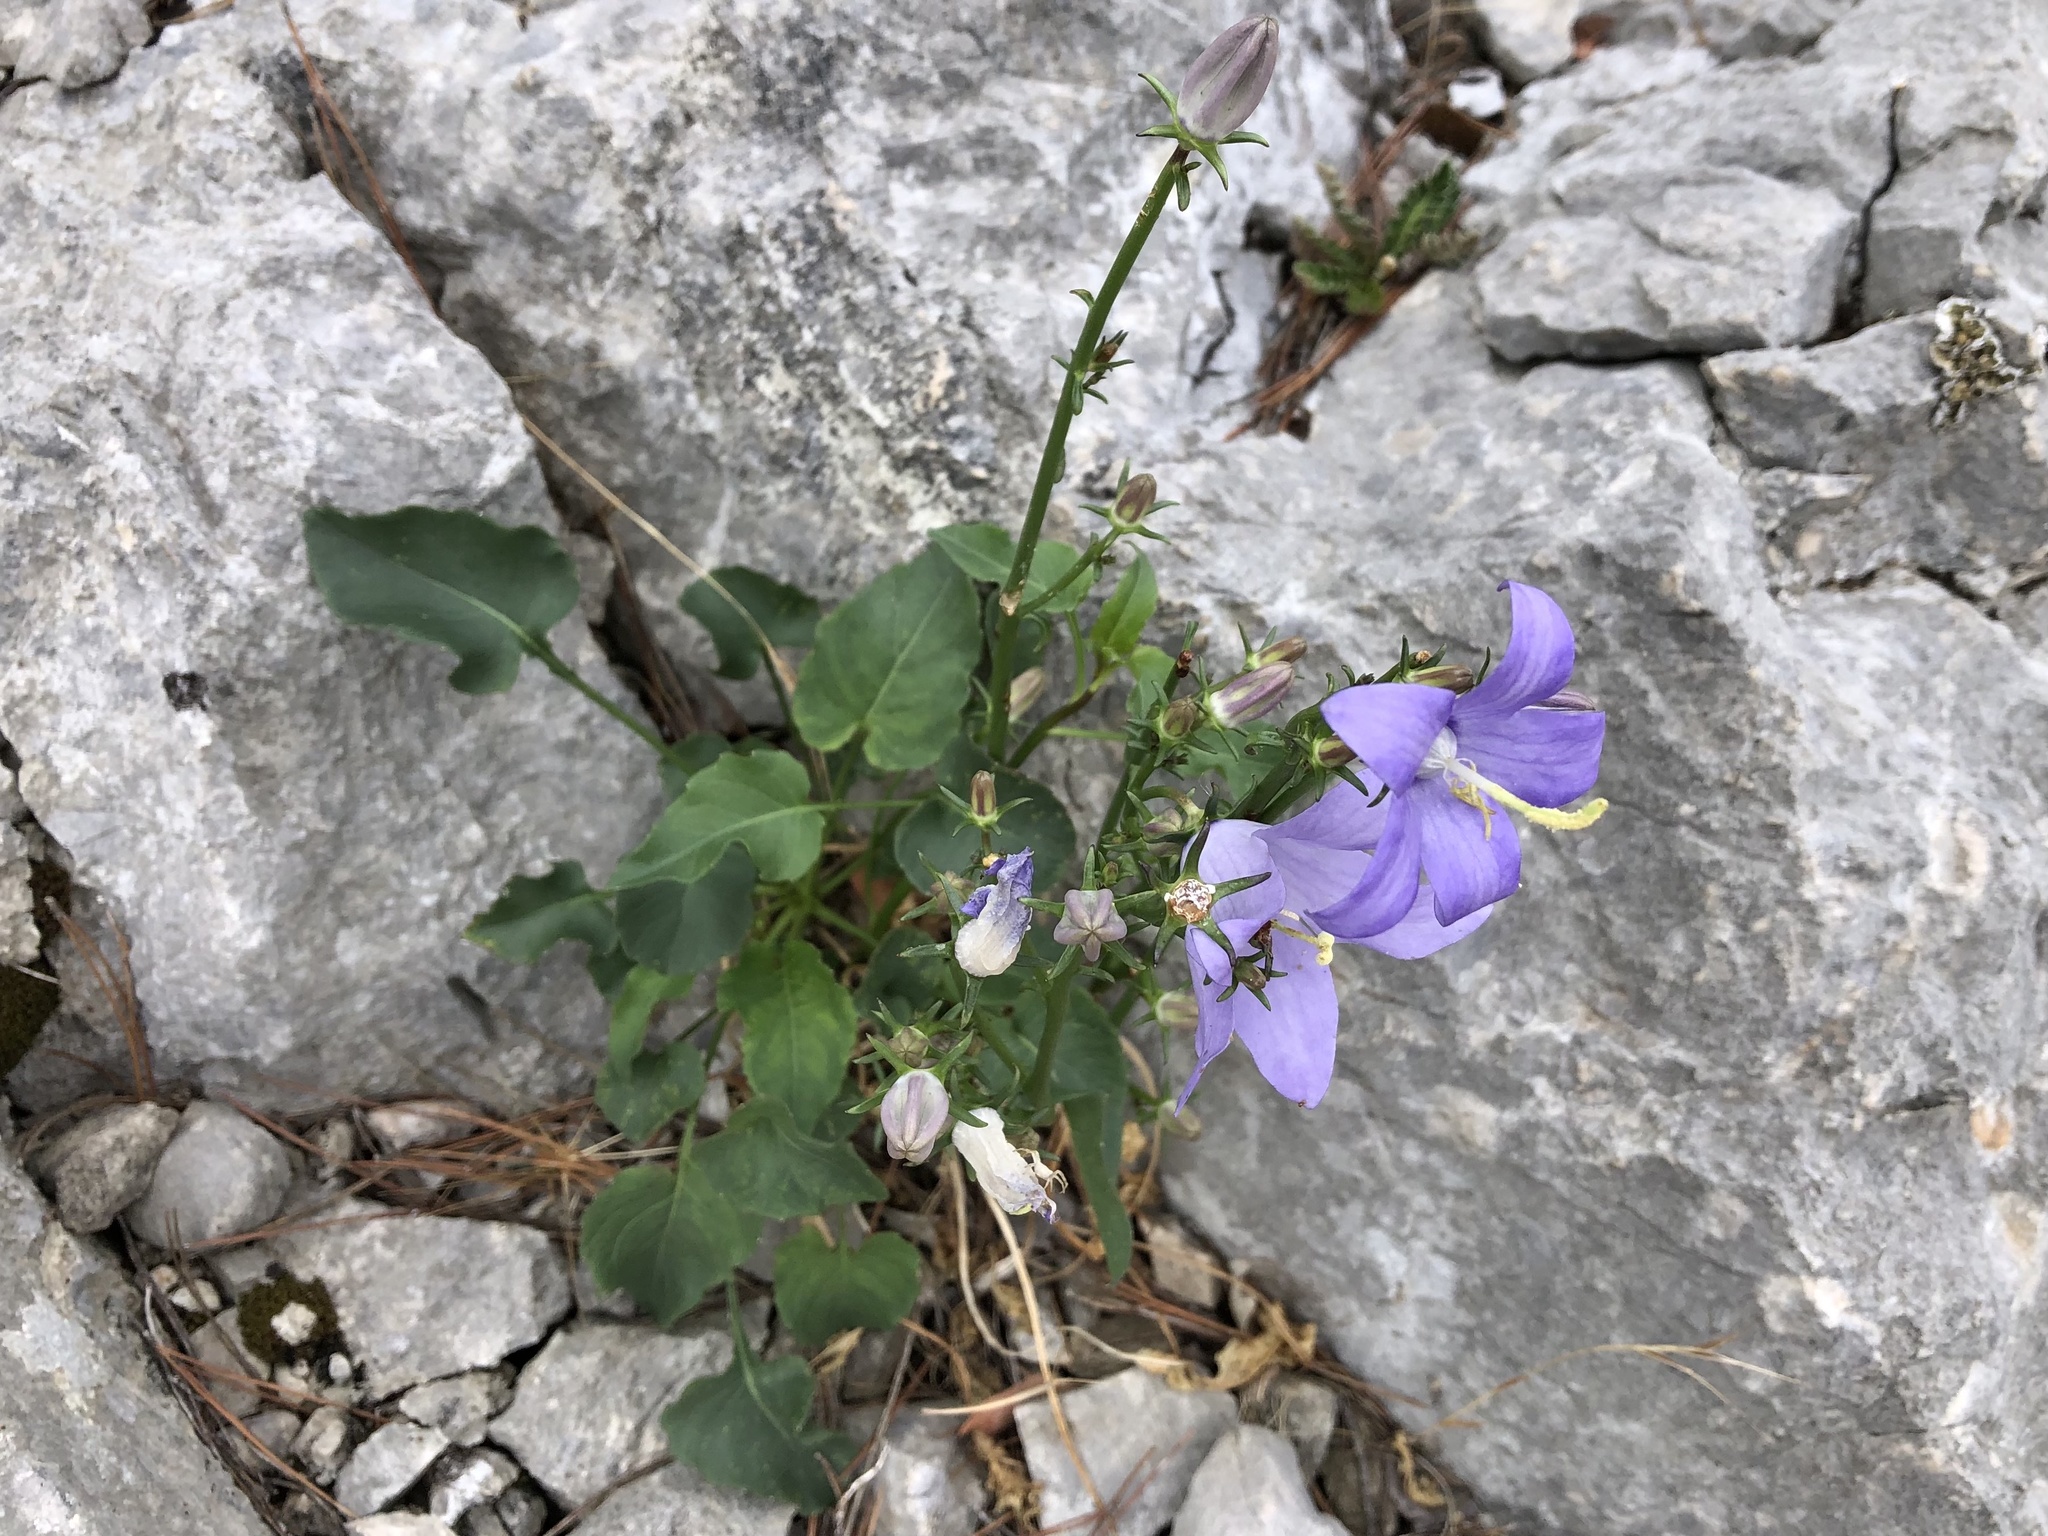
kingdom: Plantae
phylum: Tracheophyta
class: Magnoliopsida
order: Asterales
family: Campanulaceae
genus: Campanula
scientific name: Campanula pyramidalis
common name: Chimney bellflower
